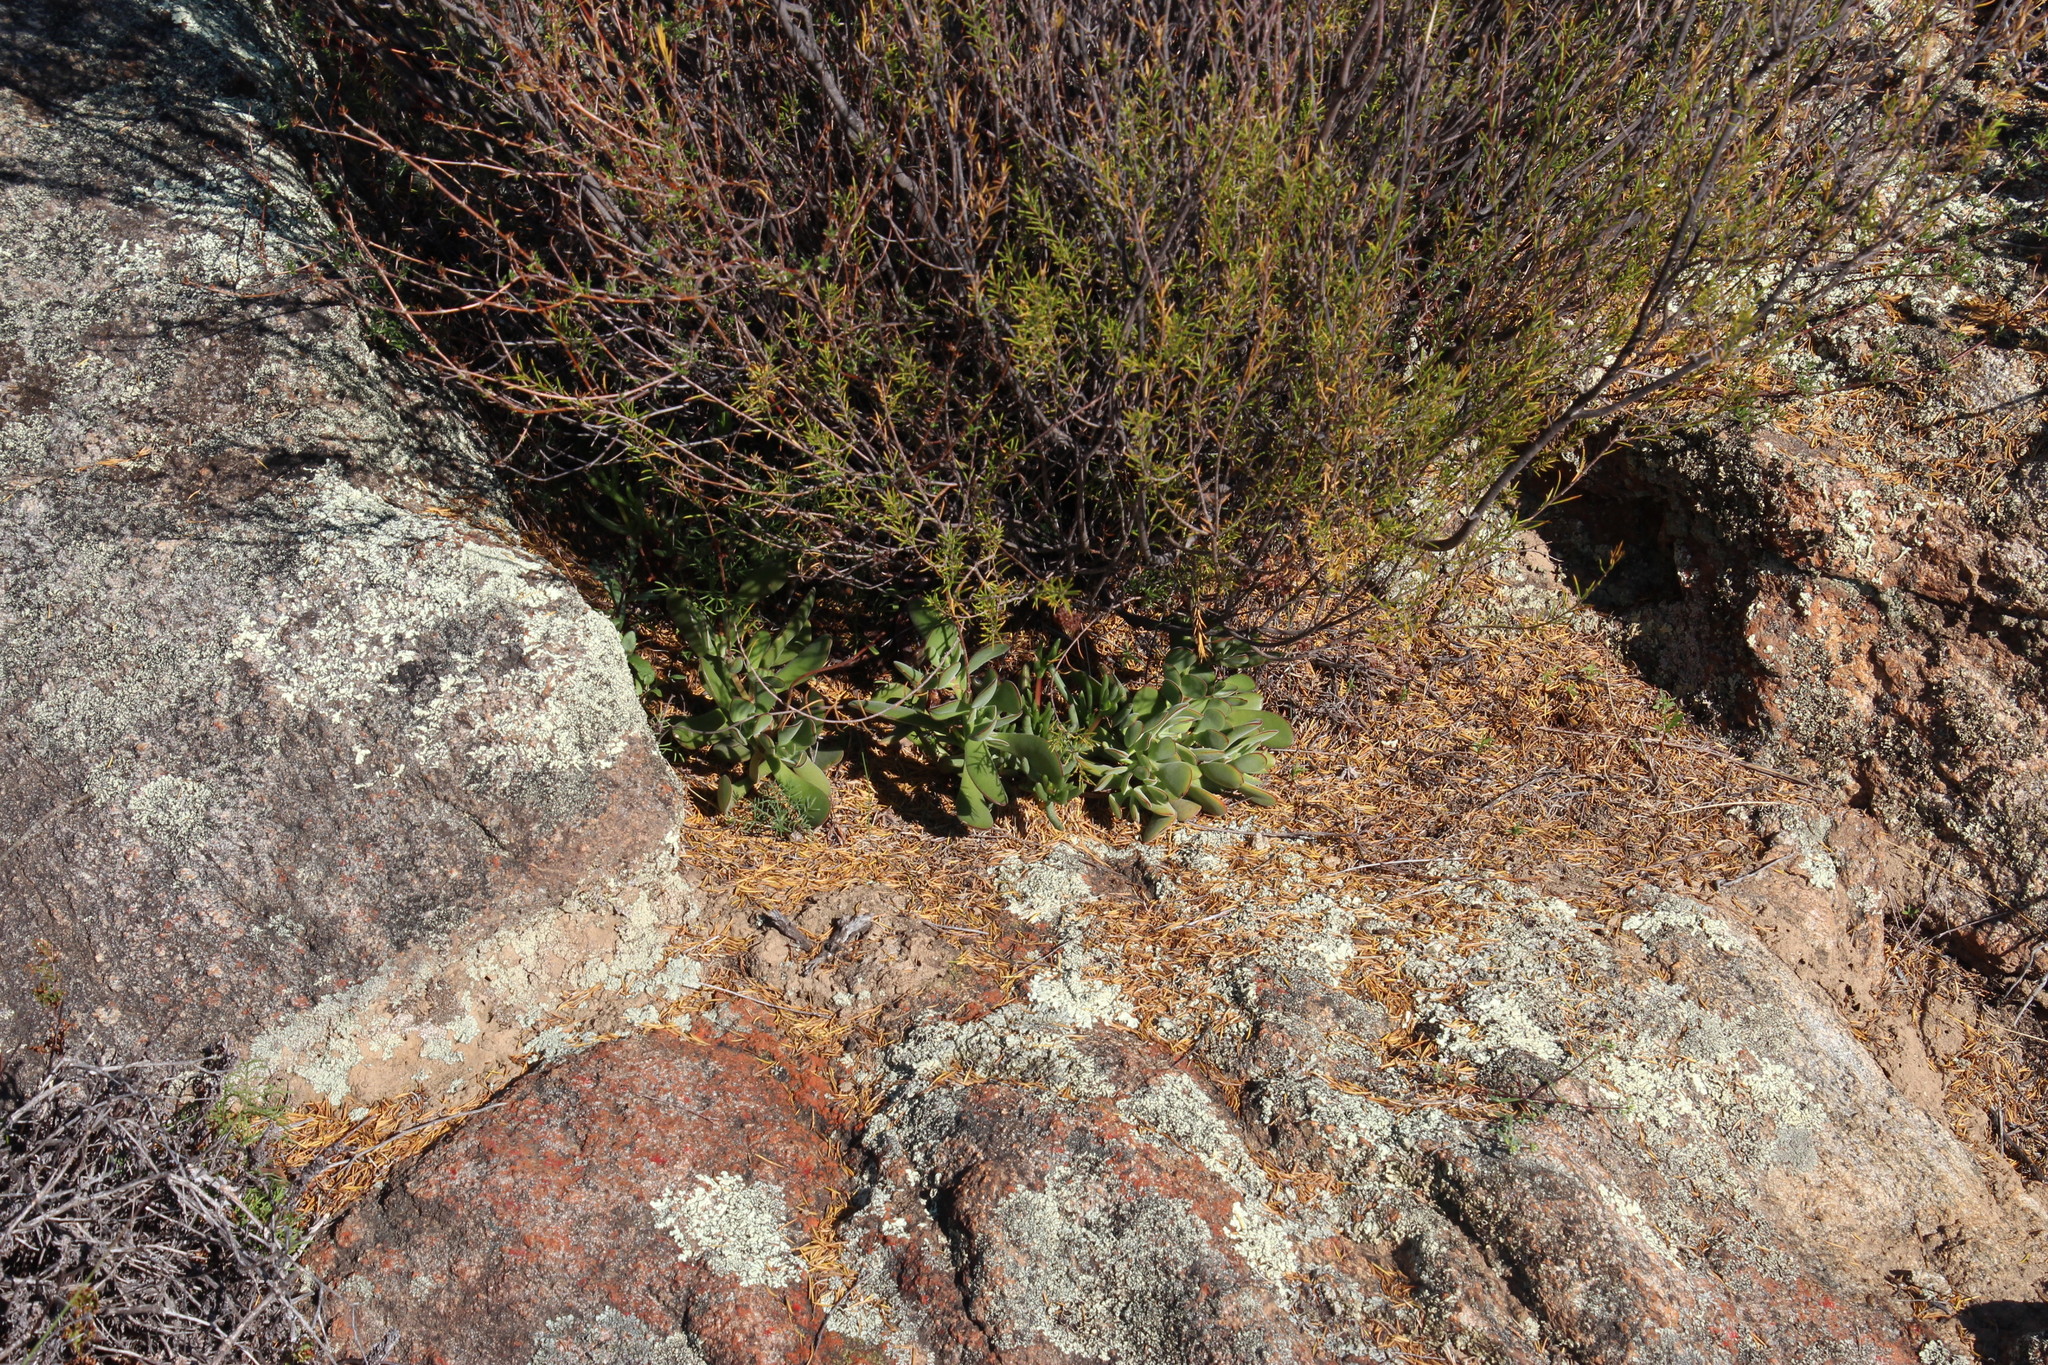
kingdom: Plantae
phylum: Tracheophyta
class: Magnoliopsida
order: Saxifragales
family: Crassulaceae
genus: Crassula
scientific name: Crassula atropurpurea
